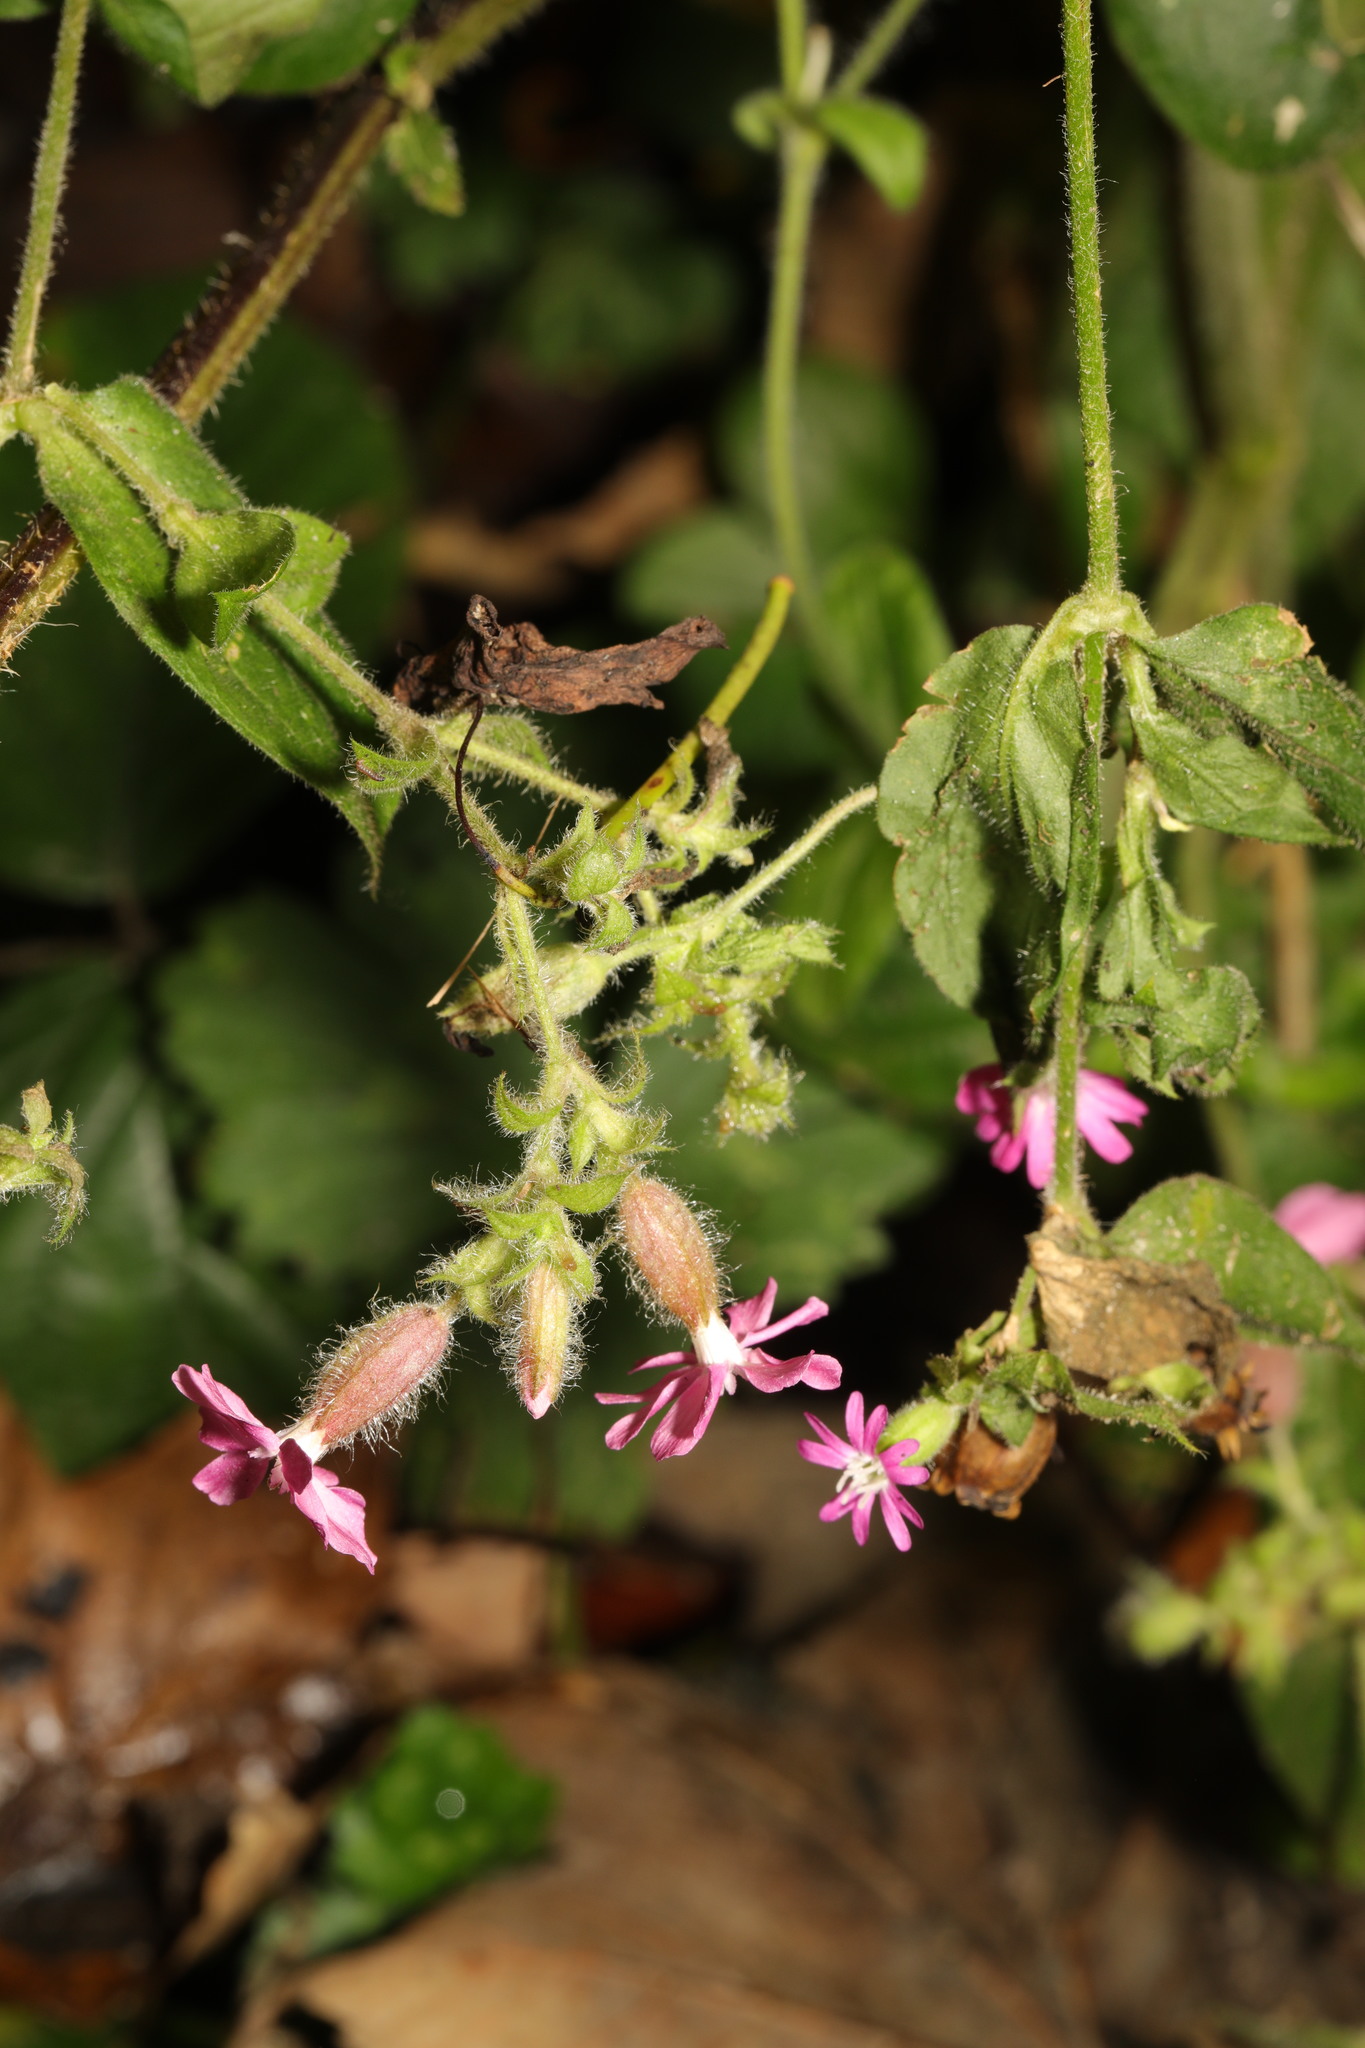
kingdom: Plantae
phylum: Tracheophyta
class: Magnoliopsida
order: Caryophyllales
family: Caryophyllaceae
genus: Silene
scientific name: Silene dioica
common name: Red campion
